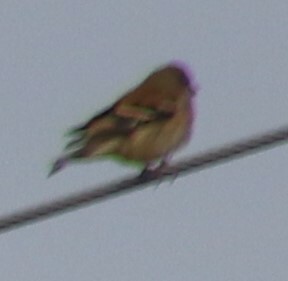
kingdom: Animalia
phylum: Chordata
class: Aves
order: Passeriformes
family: Fringillidae
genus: Spinus
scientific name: Spinus tristis
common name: American goldfinch
